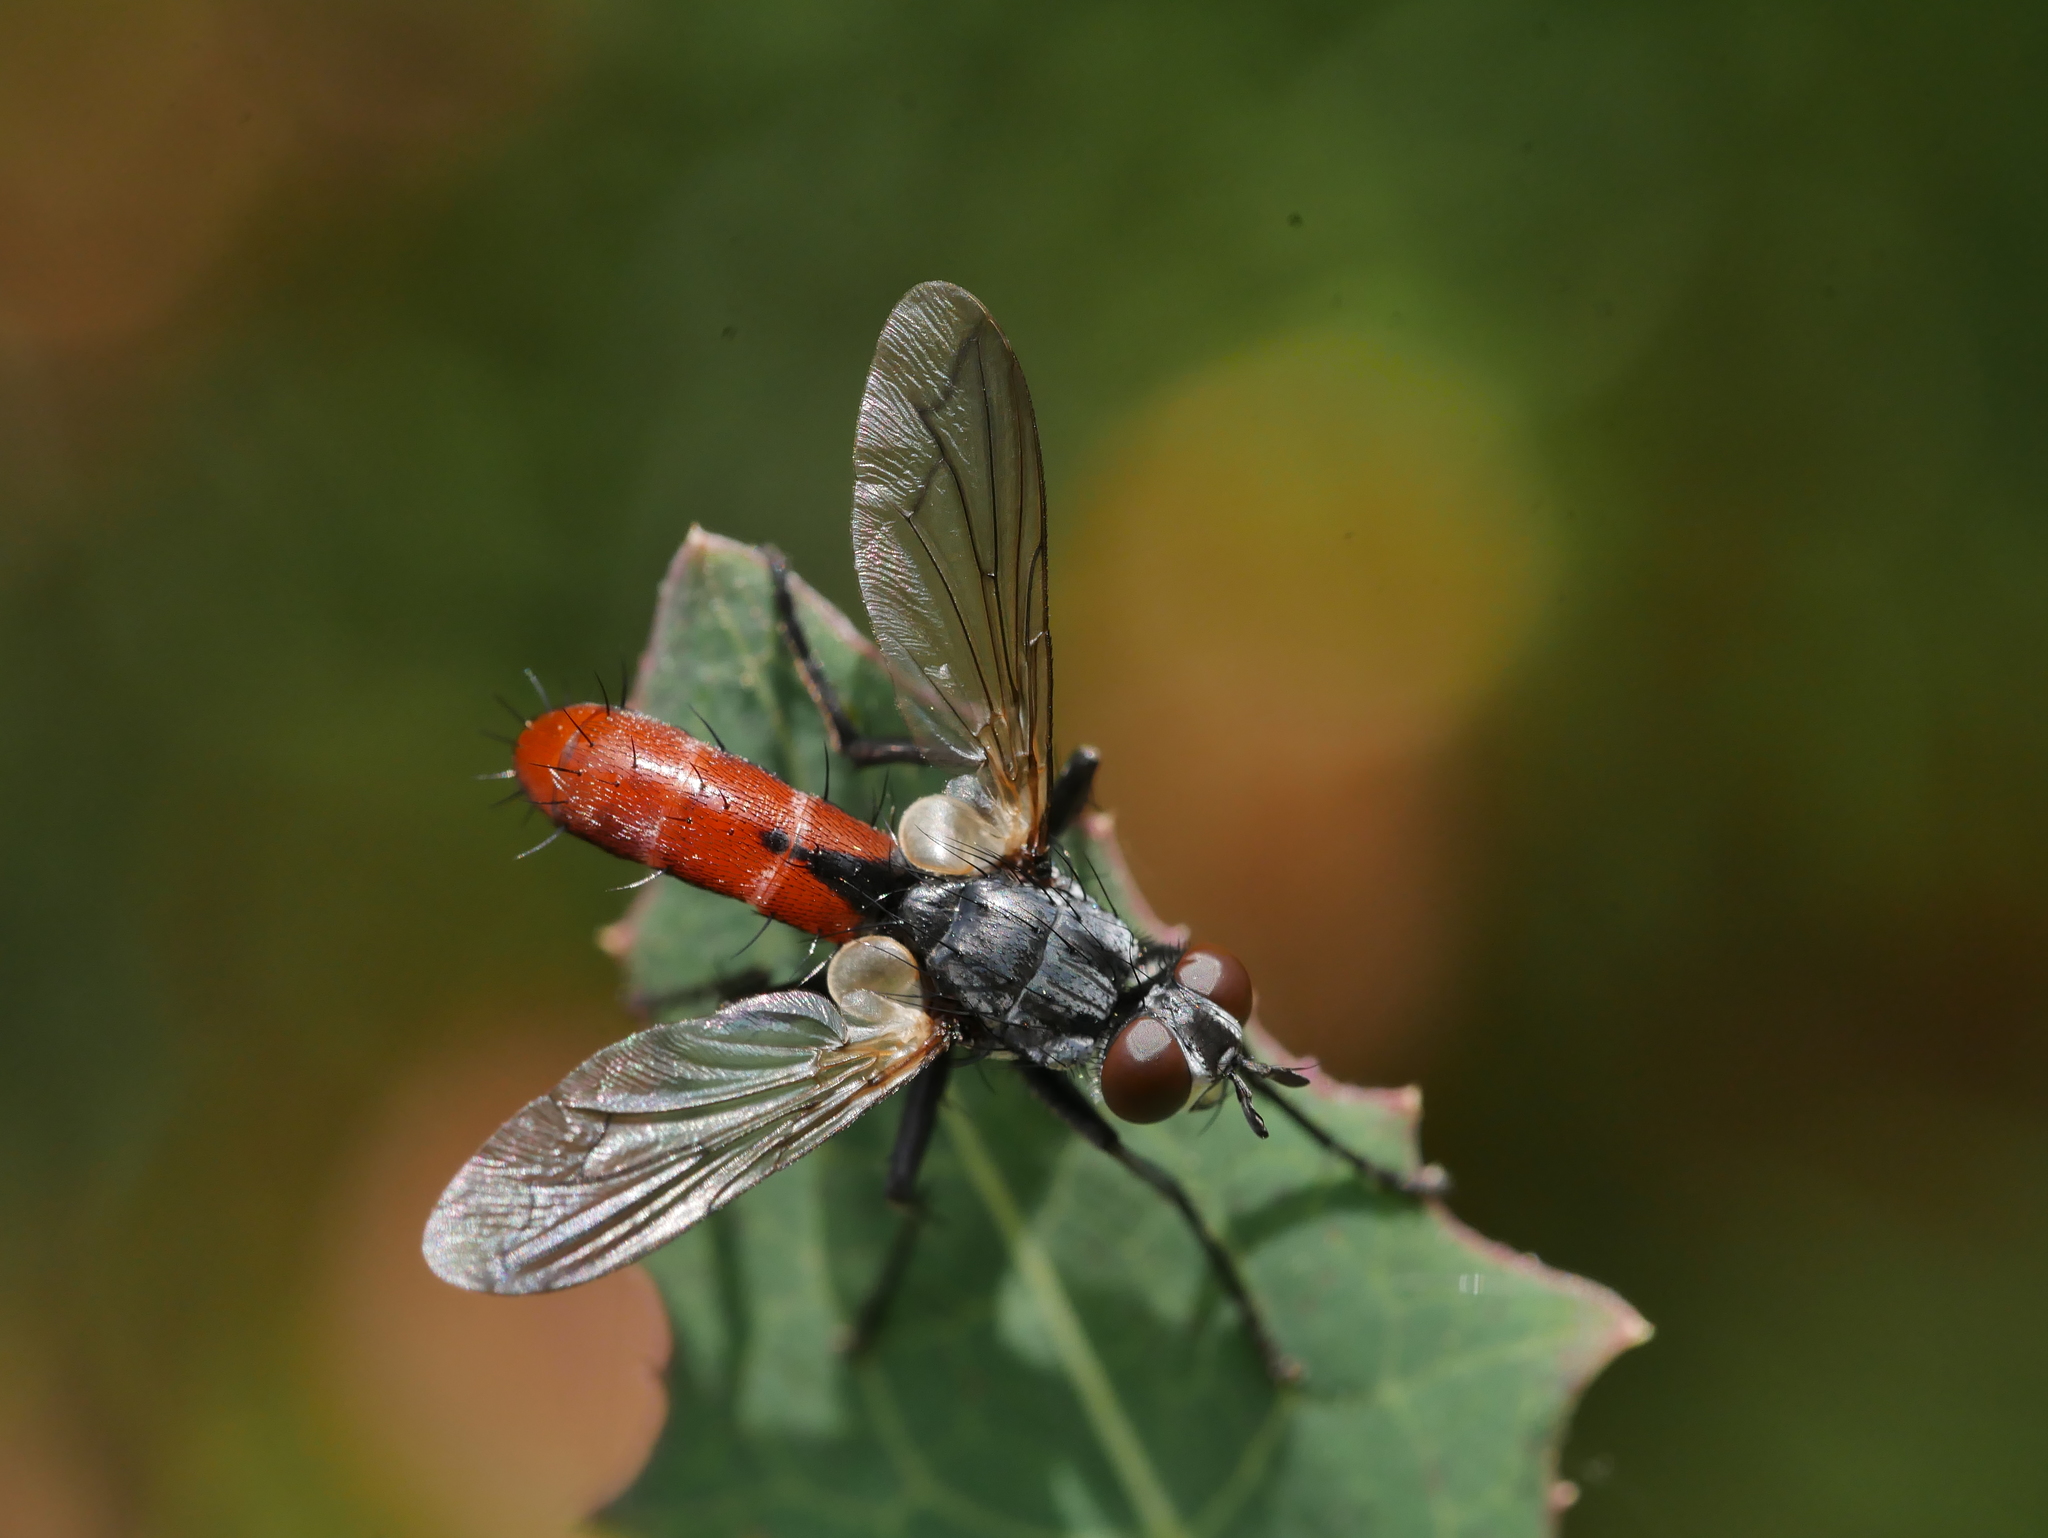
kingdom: Animalia
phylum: Arthropoda
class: Insecta
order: Diptera
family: Tachinidae
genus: Cylindromyia
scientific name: Cylindromyia bicolor
